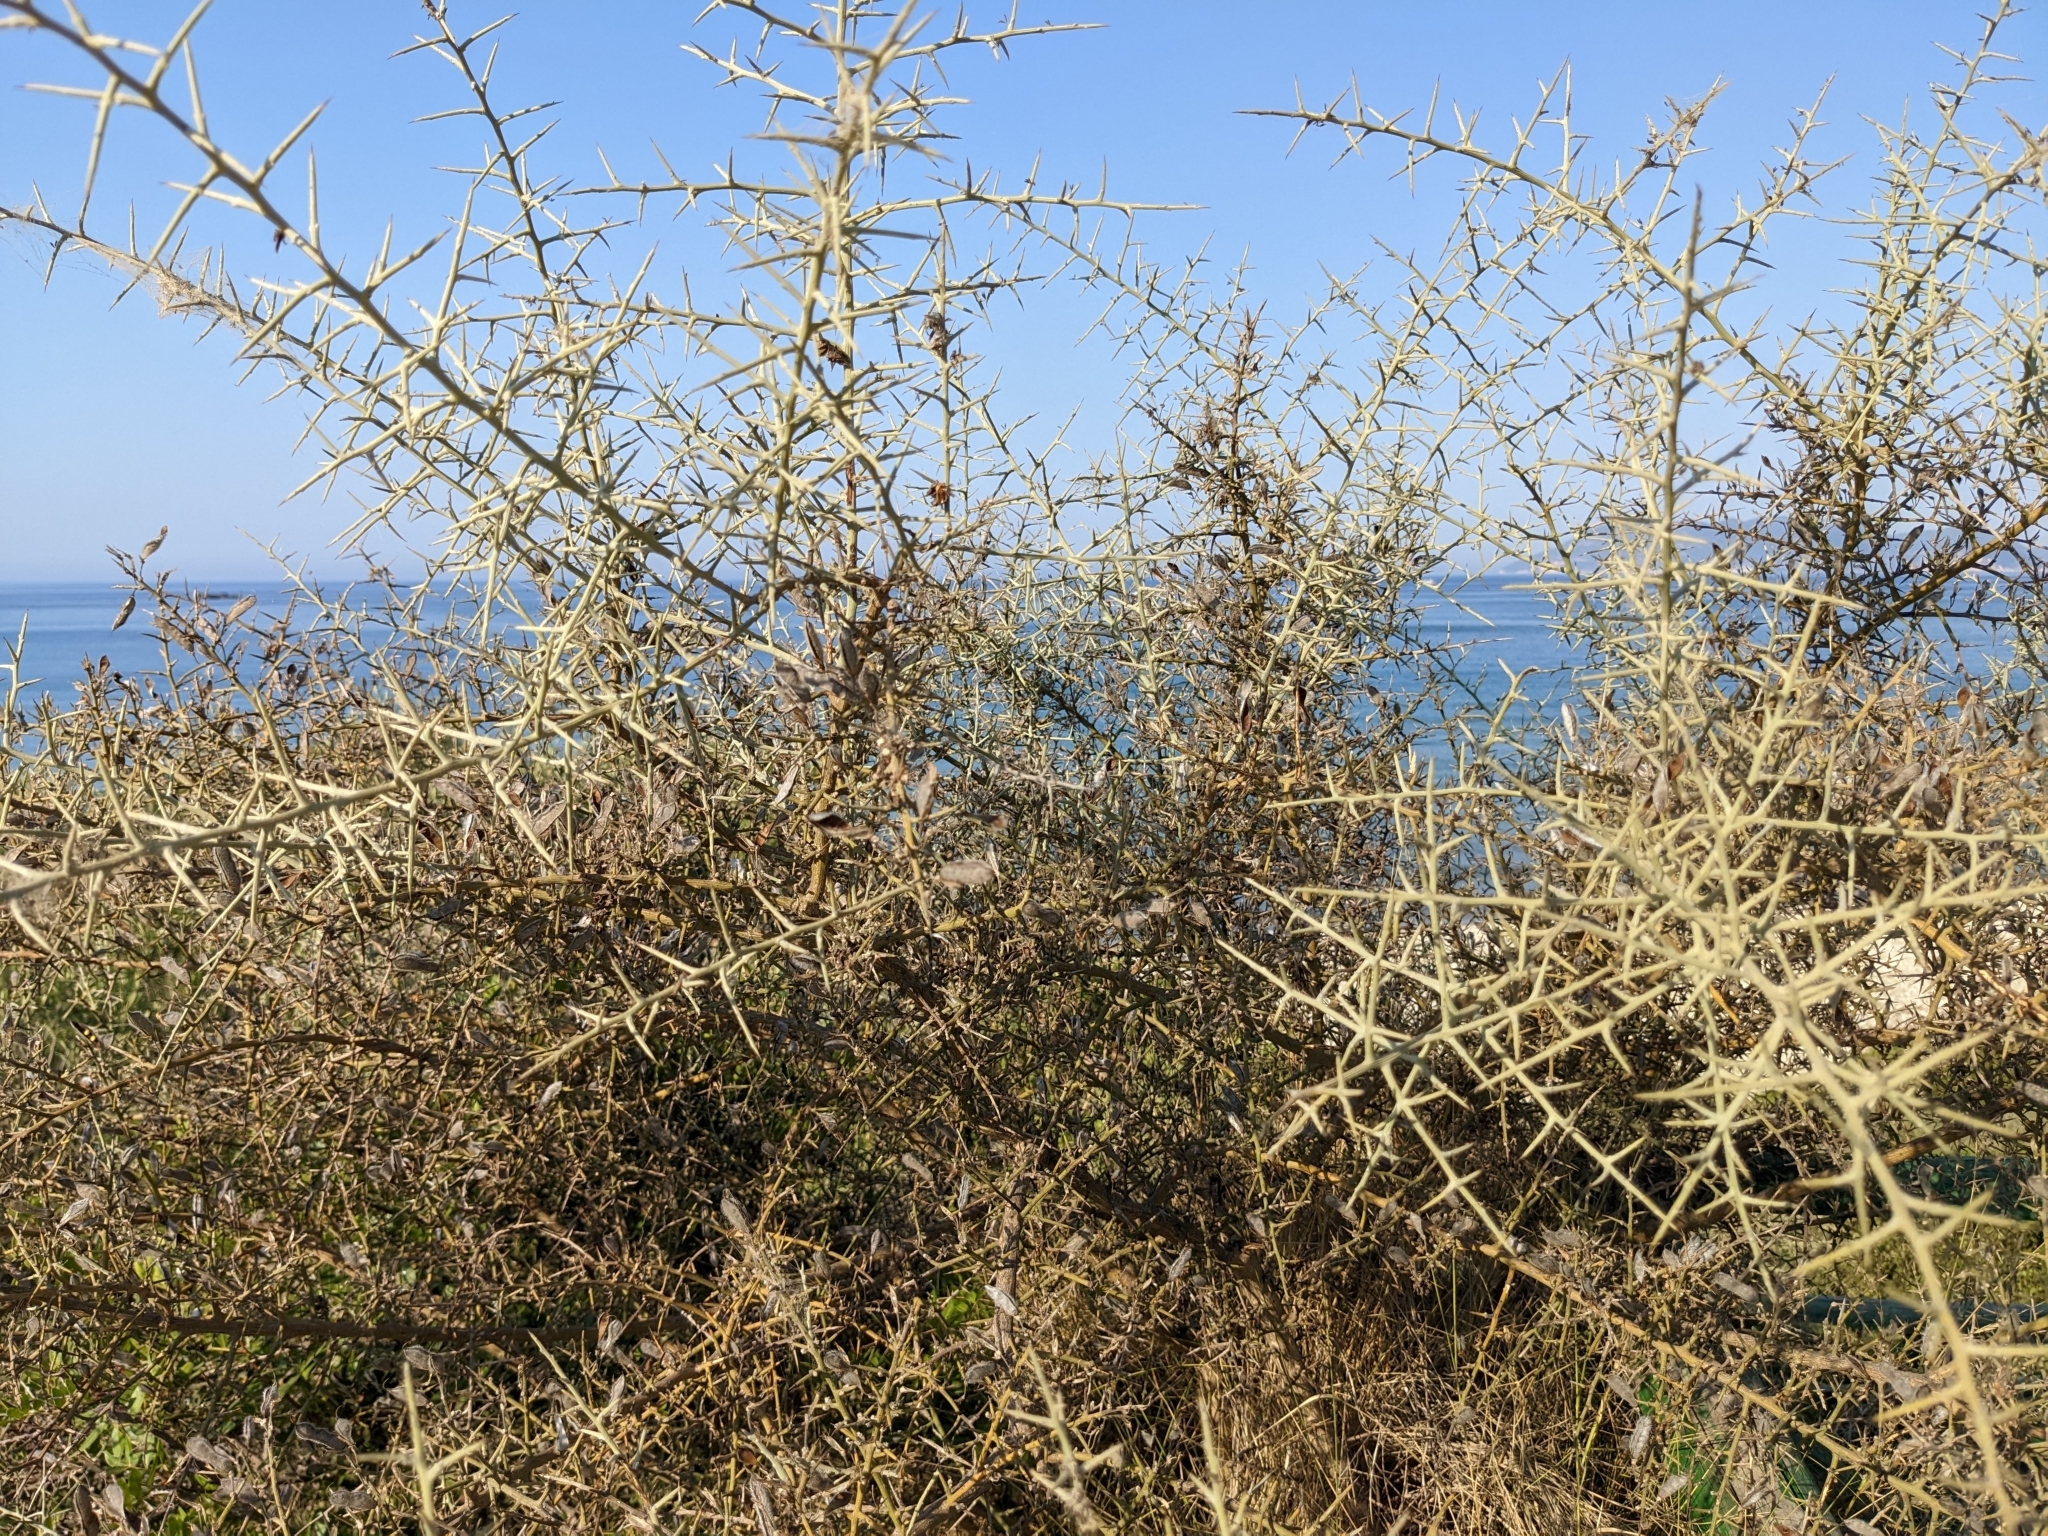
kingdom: Plantae
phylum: Tracheophyta
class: Magnoliopsida
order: Fabales
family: Fabaceae
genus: Calicotome
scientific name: Calicotome villosa
